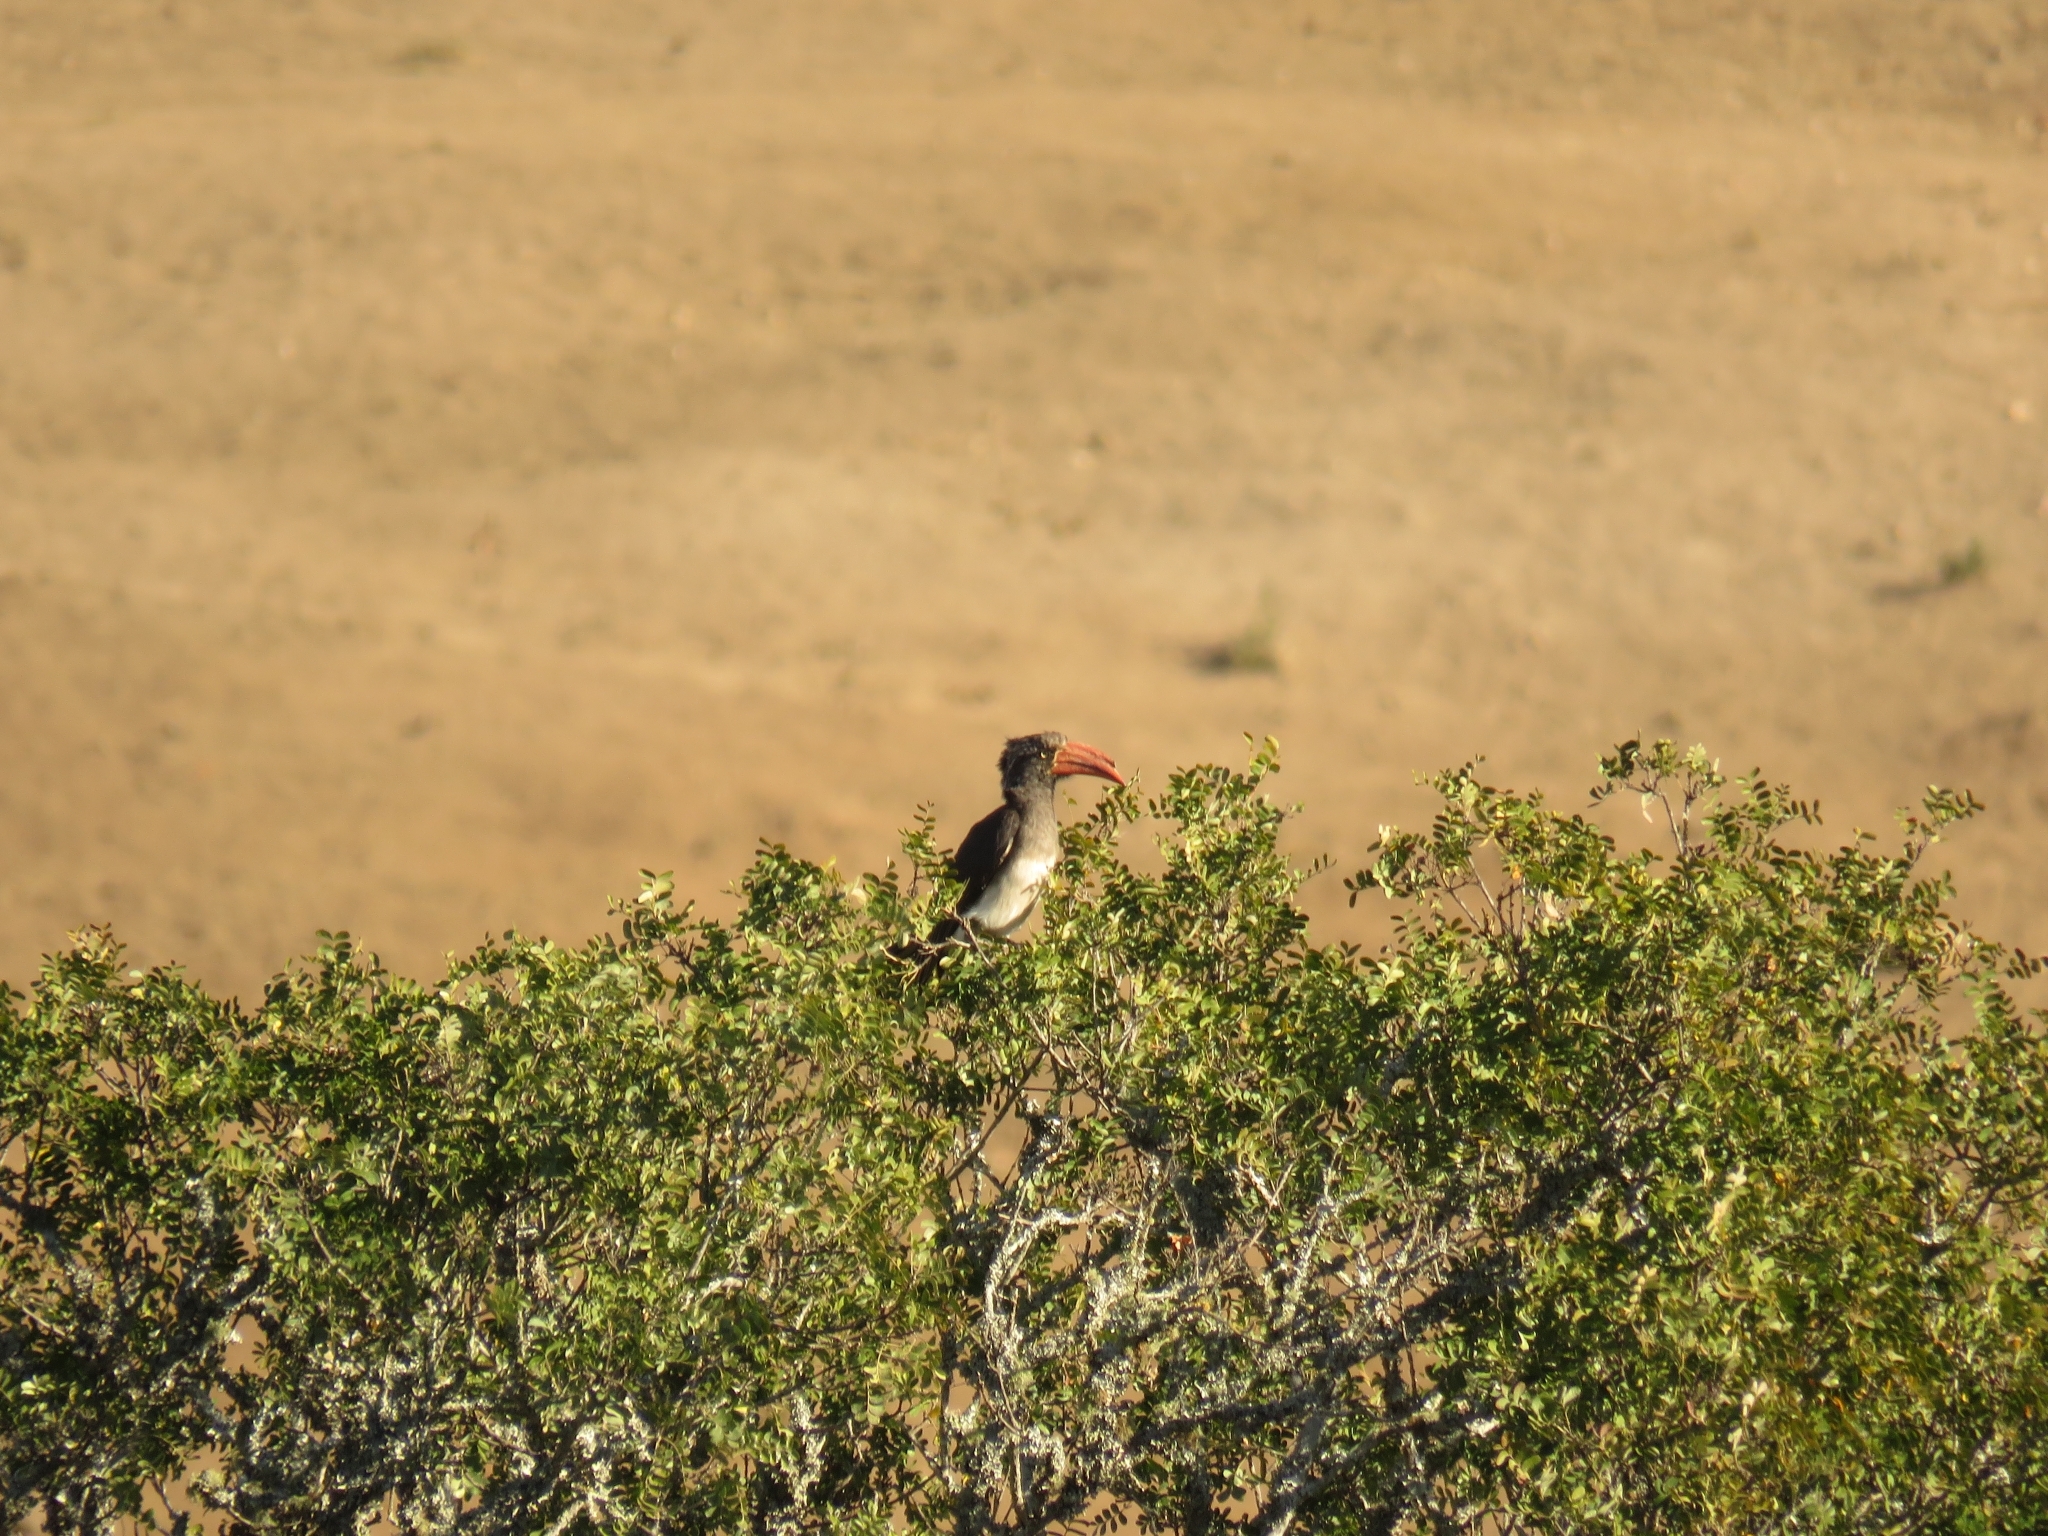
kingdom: Animalia
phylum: Chordata
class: Aves
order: Bucerotiformes
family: Bucerotidae
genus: Lophoceros
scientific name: Lophoceros alboterminatus
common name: Crowned hornbill
